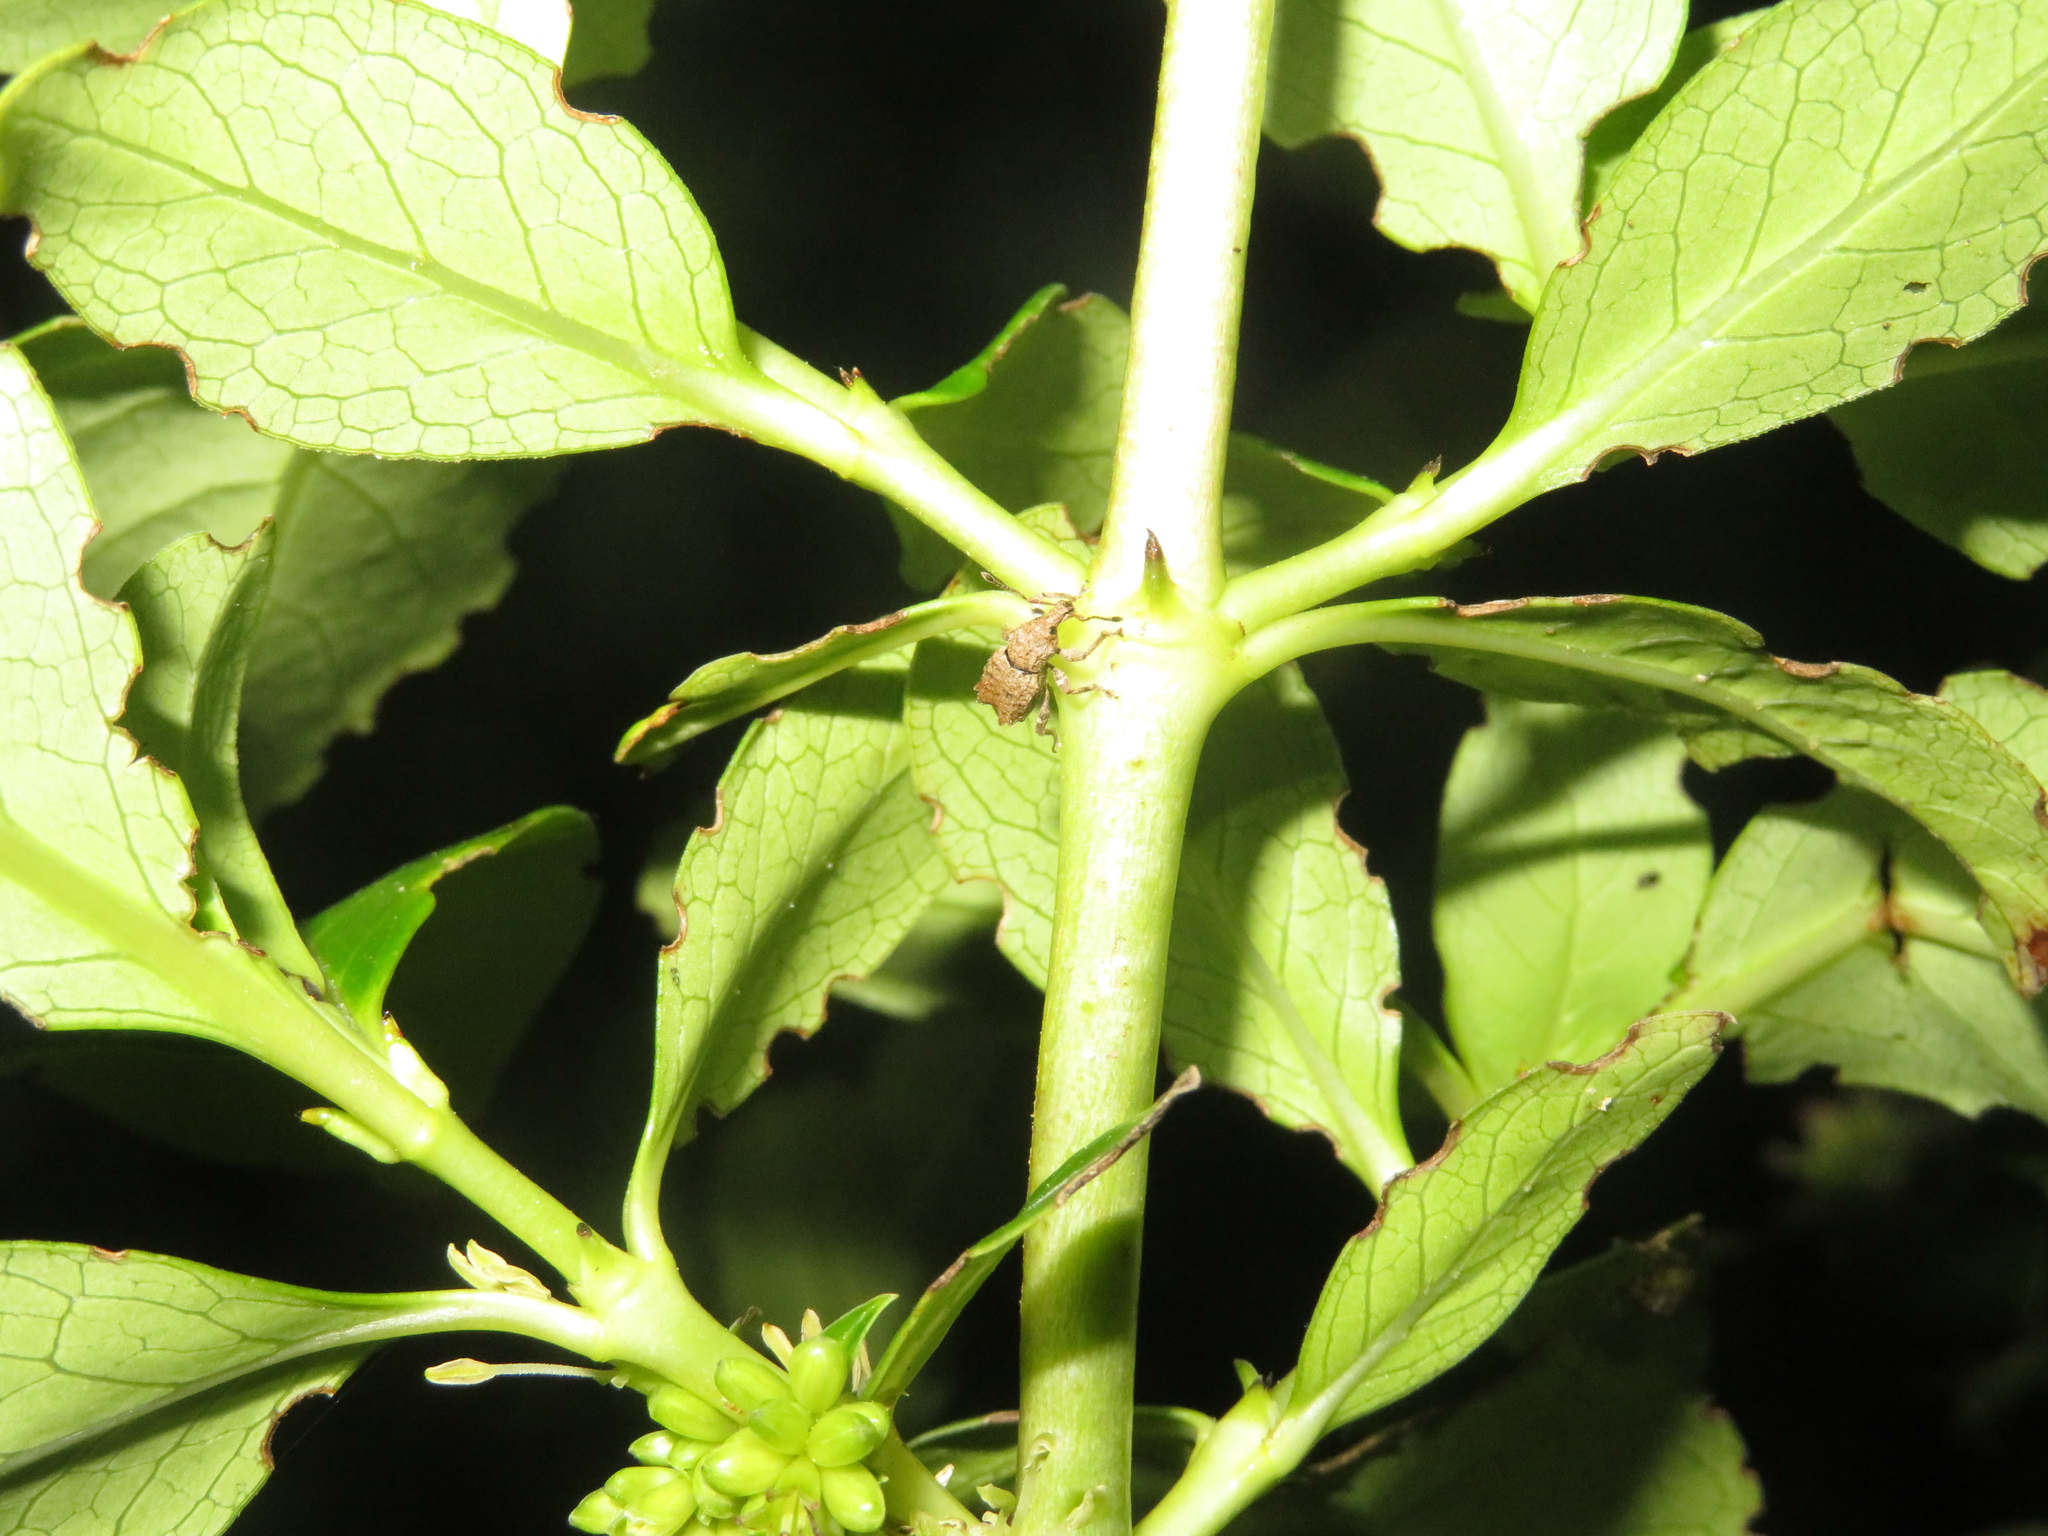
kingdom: Animalia
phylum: Arthropoda
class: Insecta
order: Coleoptera
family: Curculionidae
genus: Chalepistes
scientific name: Chalepistes costifer
